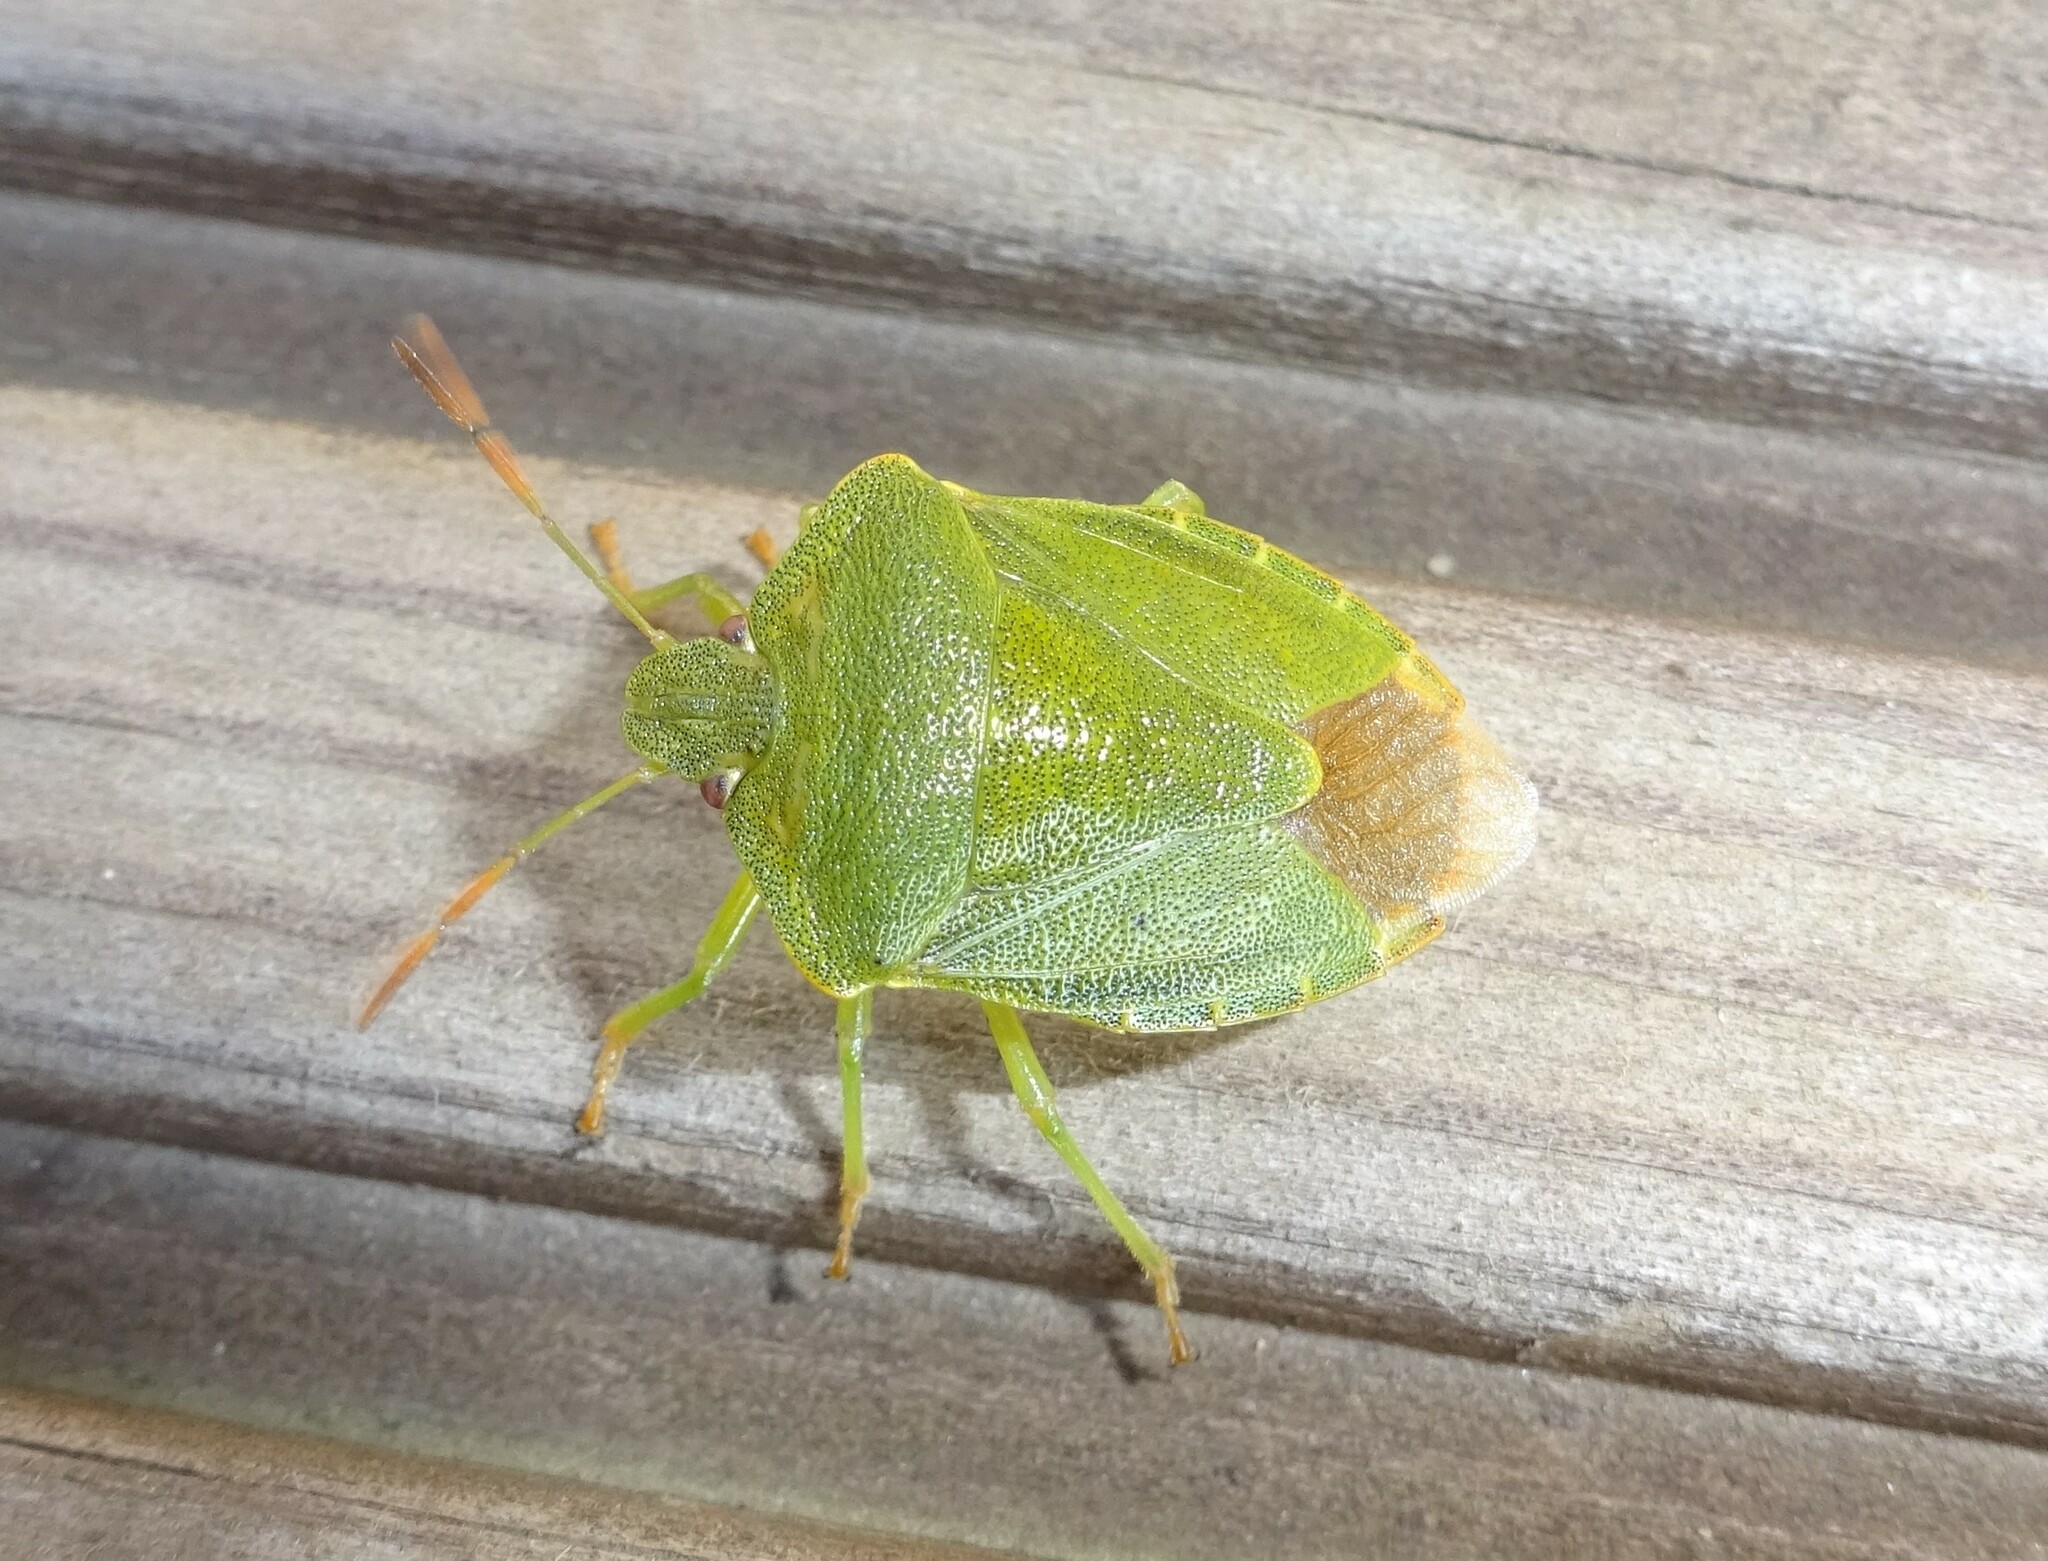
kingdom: Animalia
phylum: Arthropoda
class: Insecta
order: Hemiptera
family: Pentatomidae
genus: Palomena
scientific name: Palomena prasina
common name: Green shieldbug
